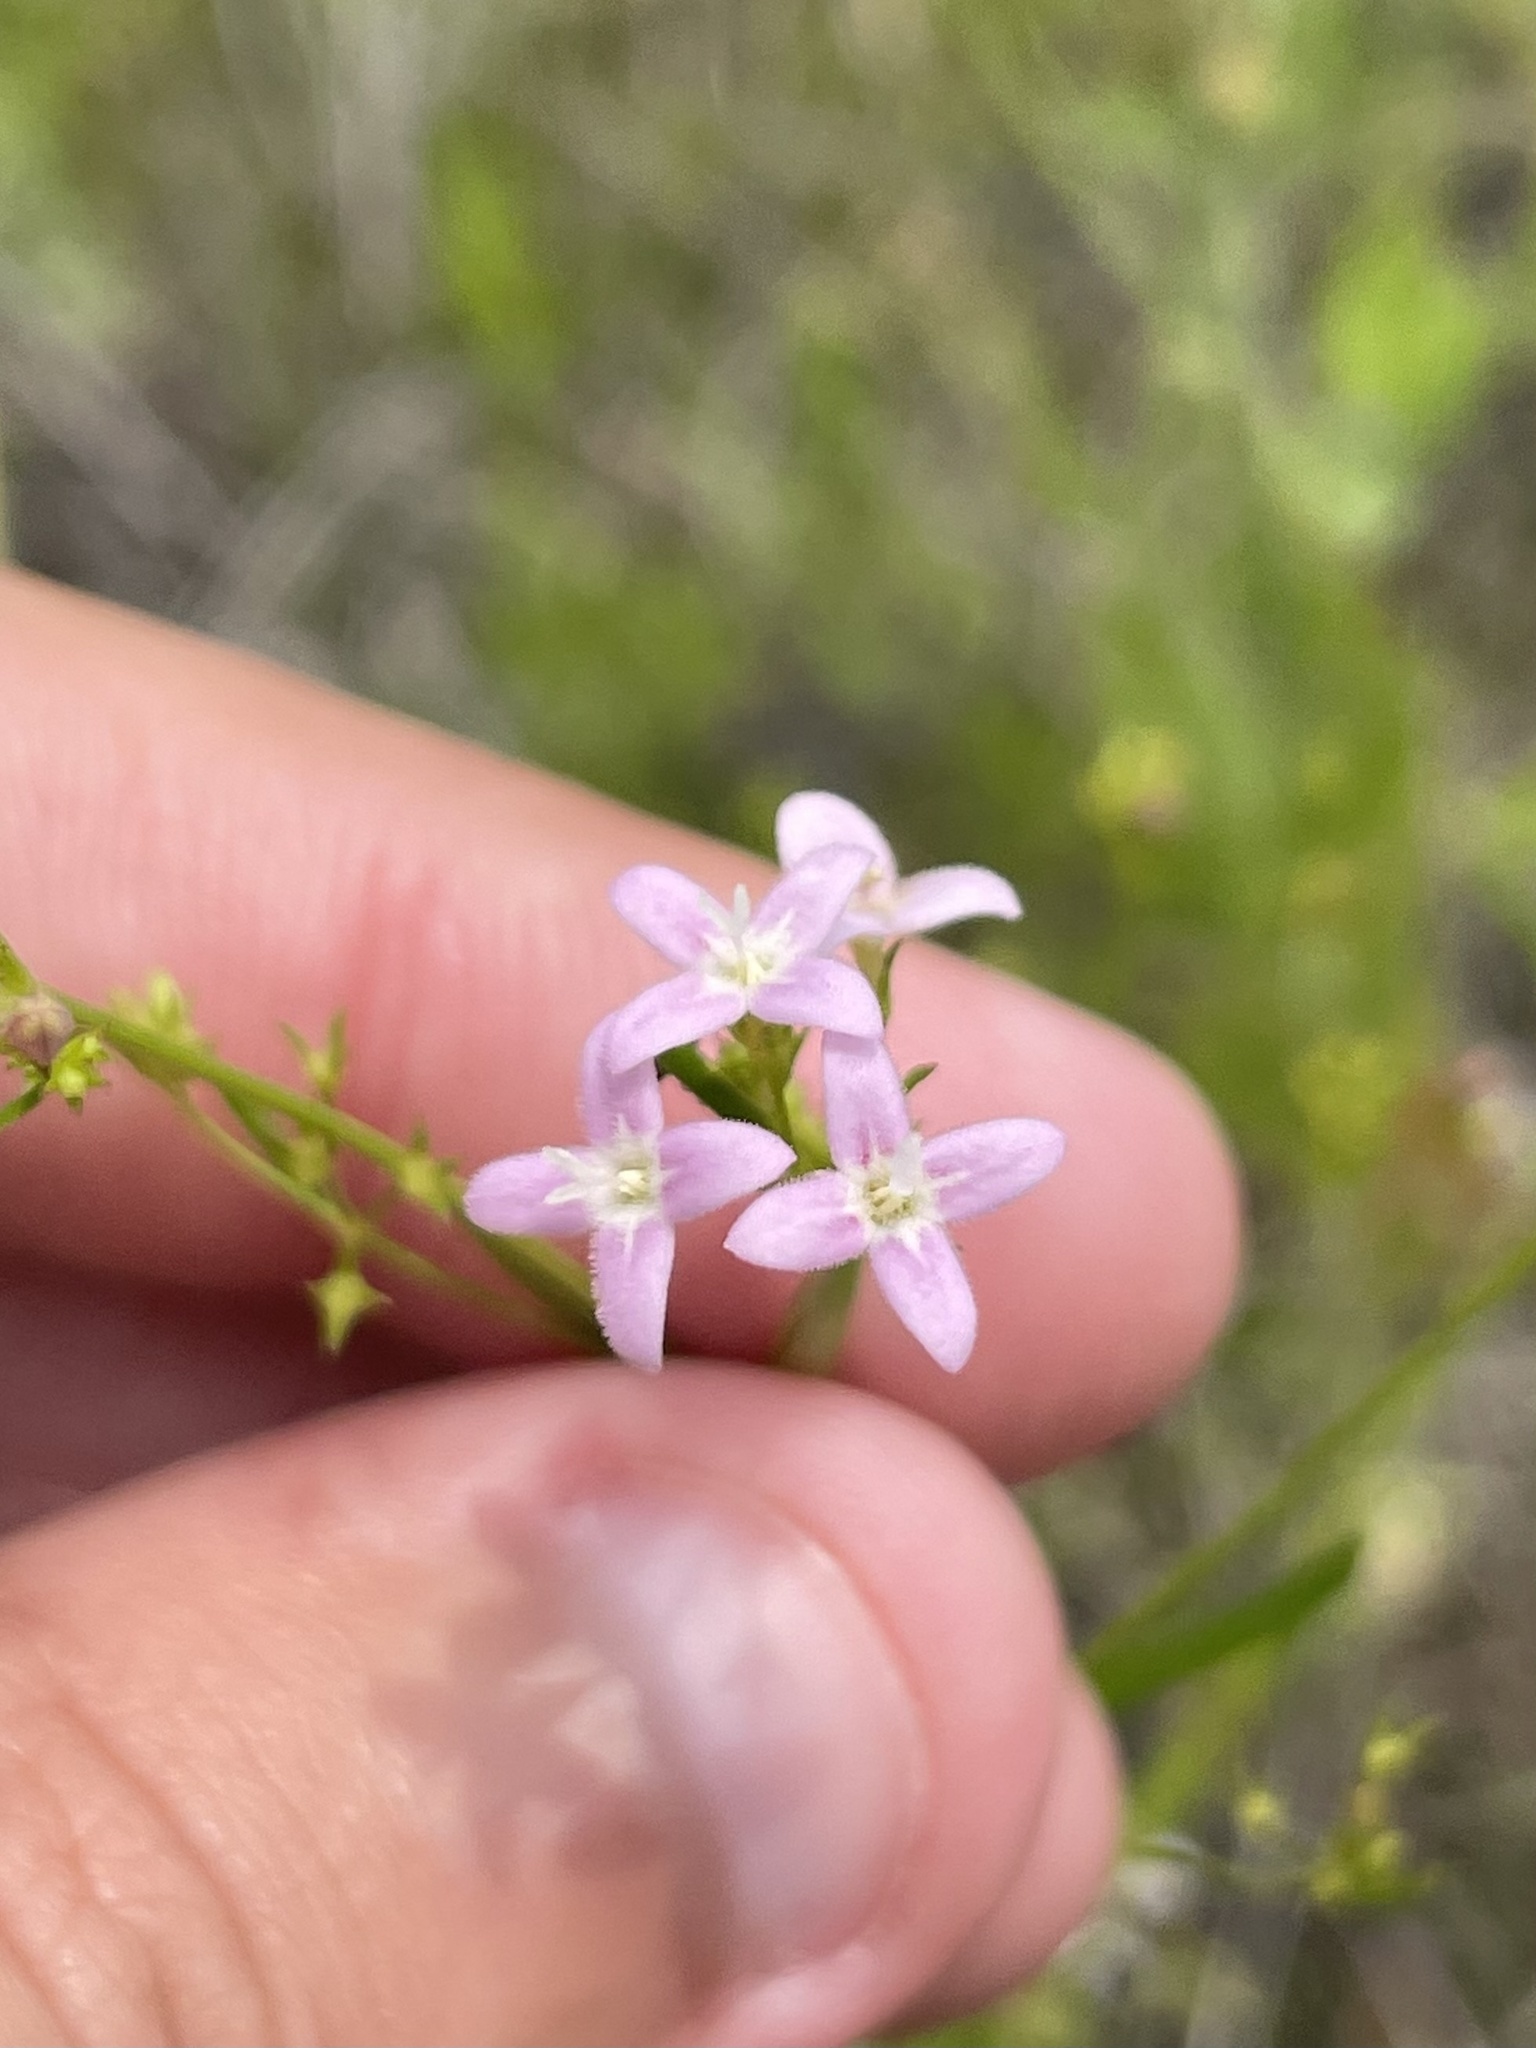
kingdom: Plantae
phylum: Tracheophyta
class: Magnoliopsida
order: Gentianales
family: Rubiaceae
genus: Stenaria
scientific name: Stenaria nigricans
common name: Diamondflowers
